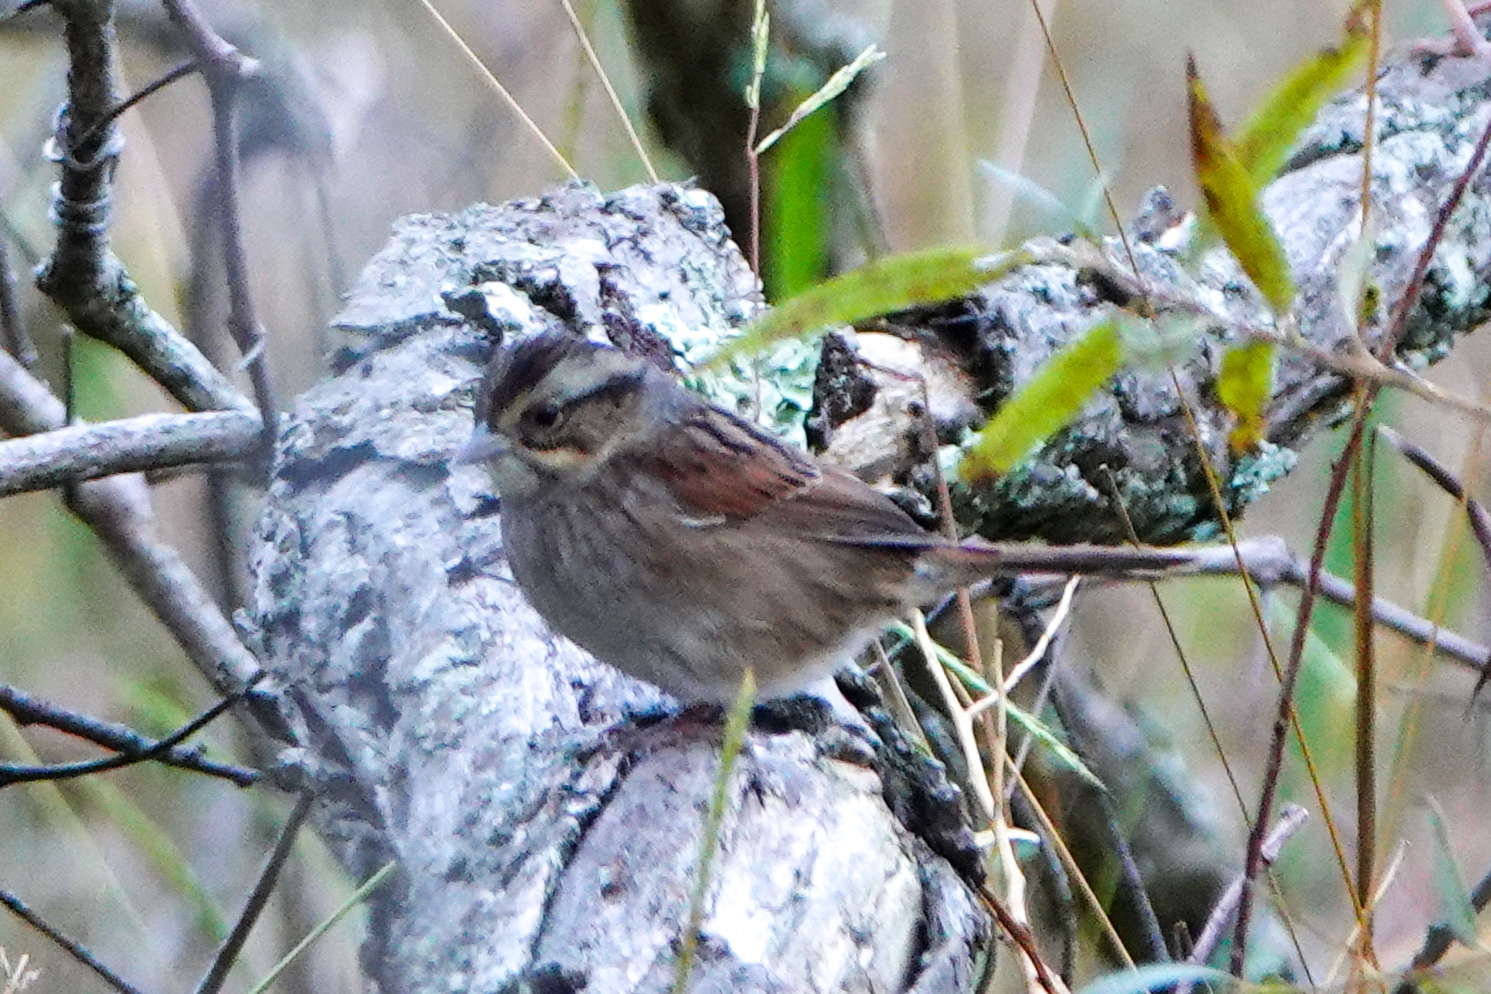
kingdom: Animalia
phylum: Chordata
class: Aves
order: Passeriformes
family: Passerellidae
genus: Melospiza
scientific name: Melospiza georgiana
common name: Swamp sparrow
